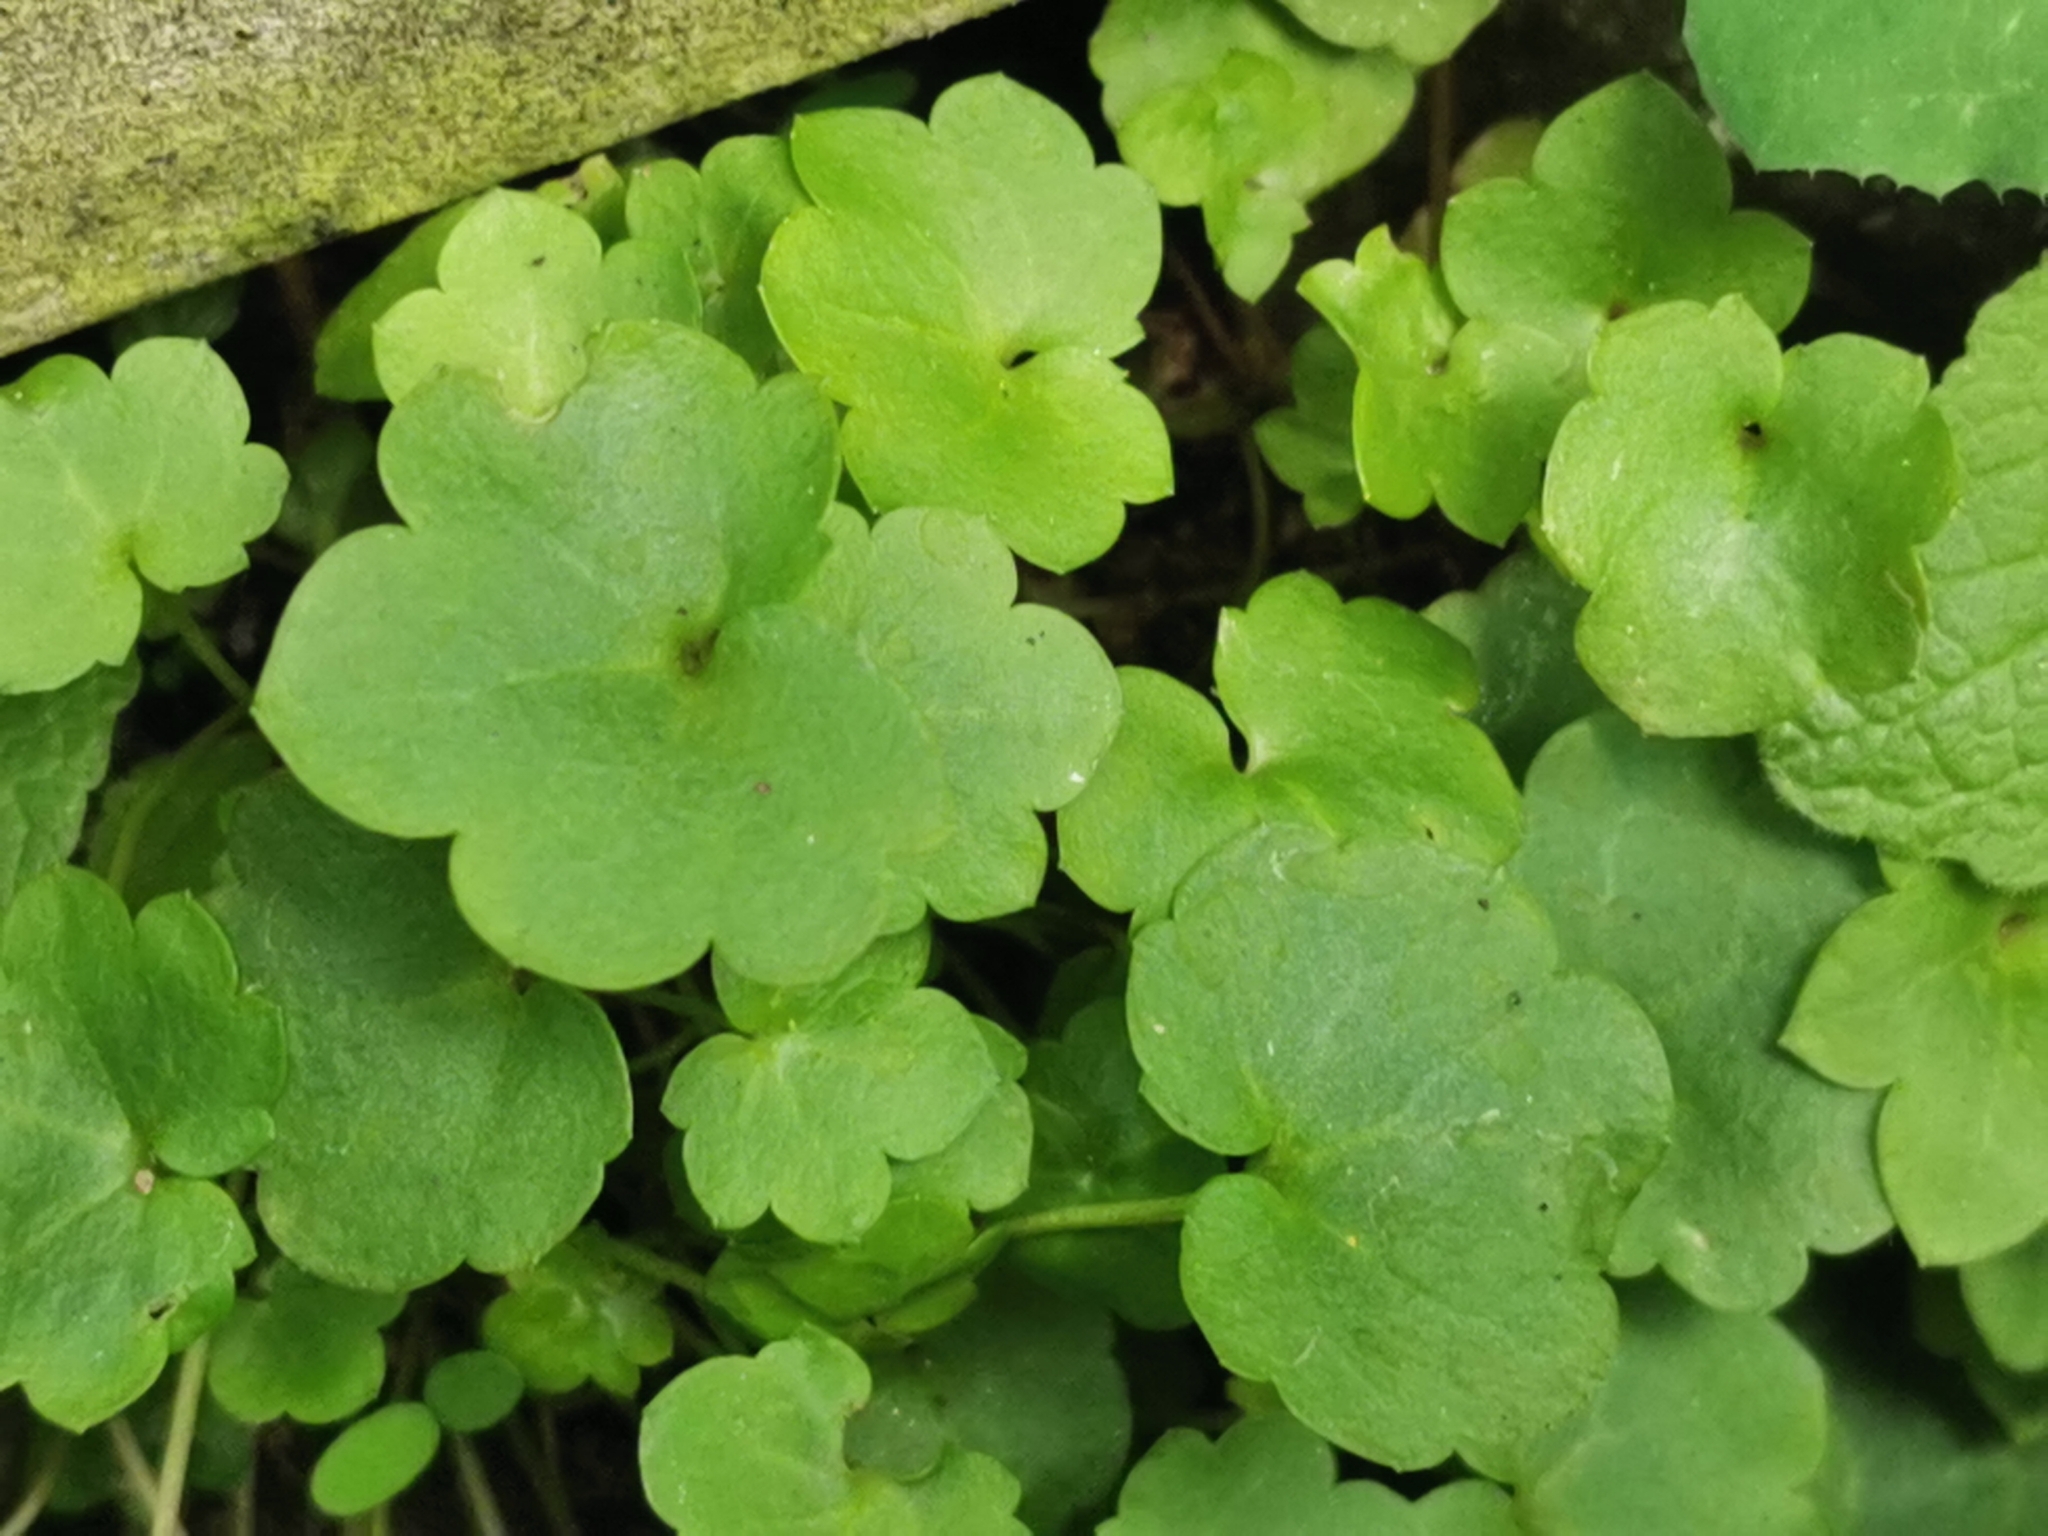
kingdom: Plantae
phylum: Tracheophyta
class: Magnoliopsida
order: Lamiales
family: Plantaginaceae
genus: Cymbalaria
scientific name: Cymbalaria muralis
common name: Ivy-leaved toadflax
